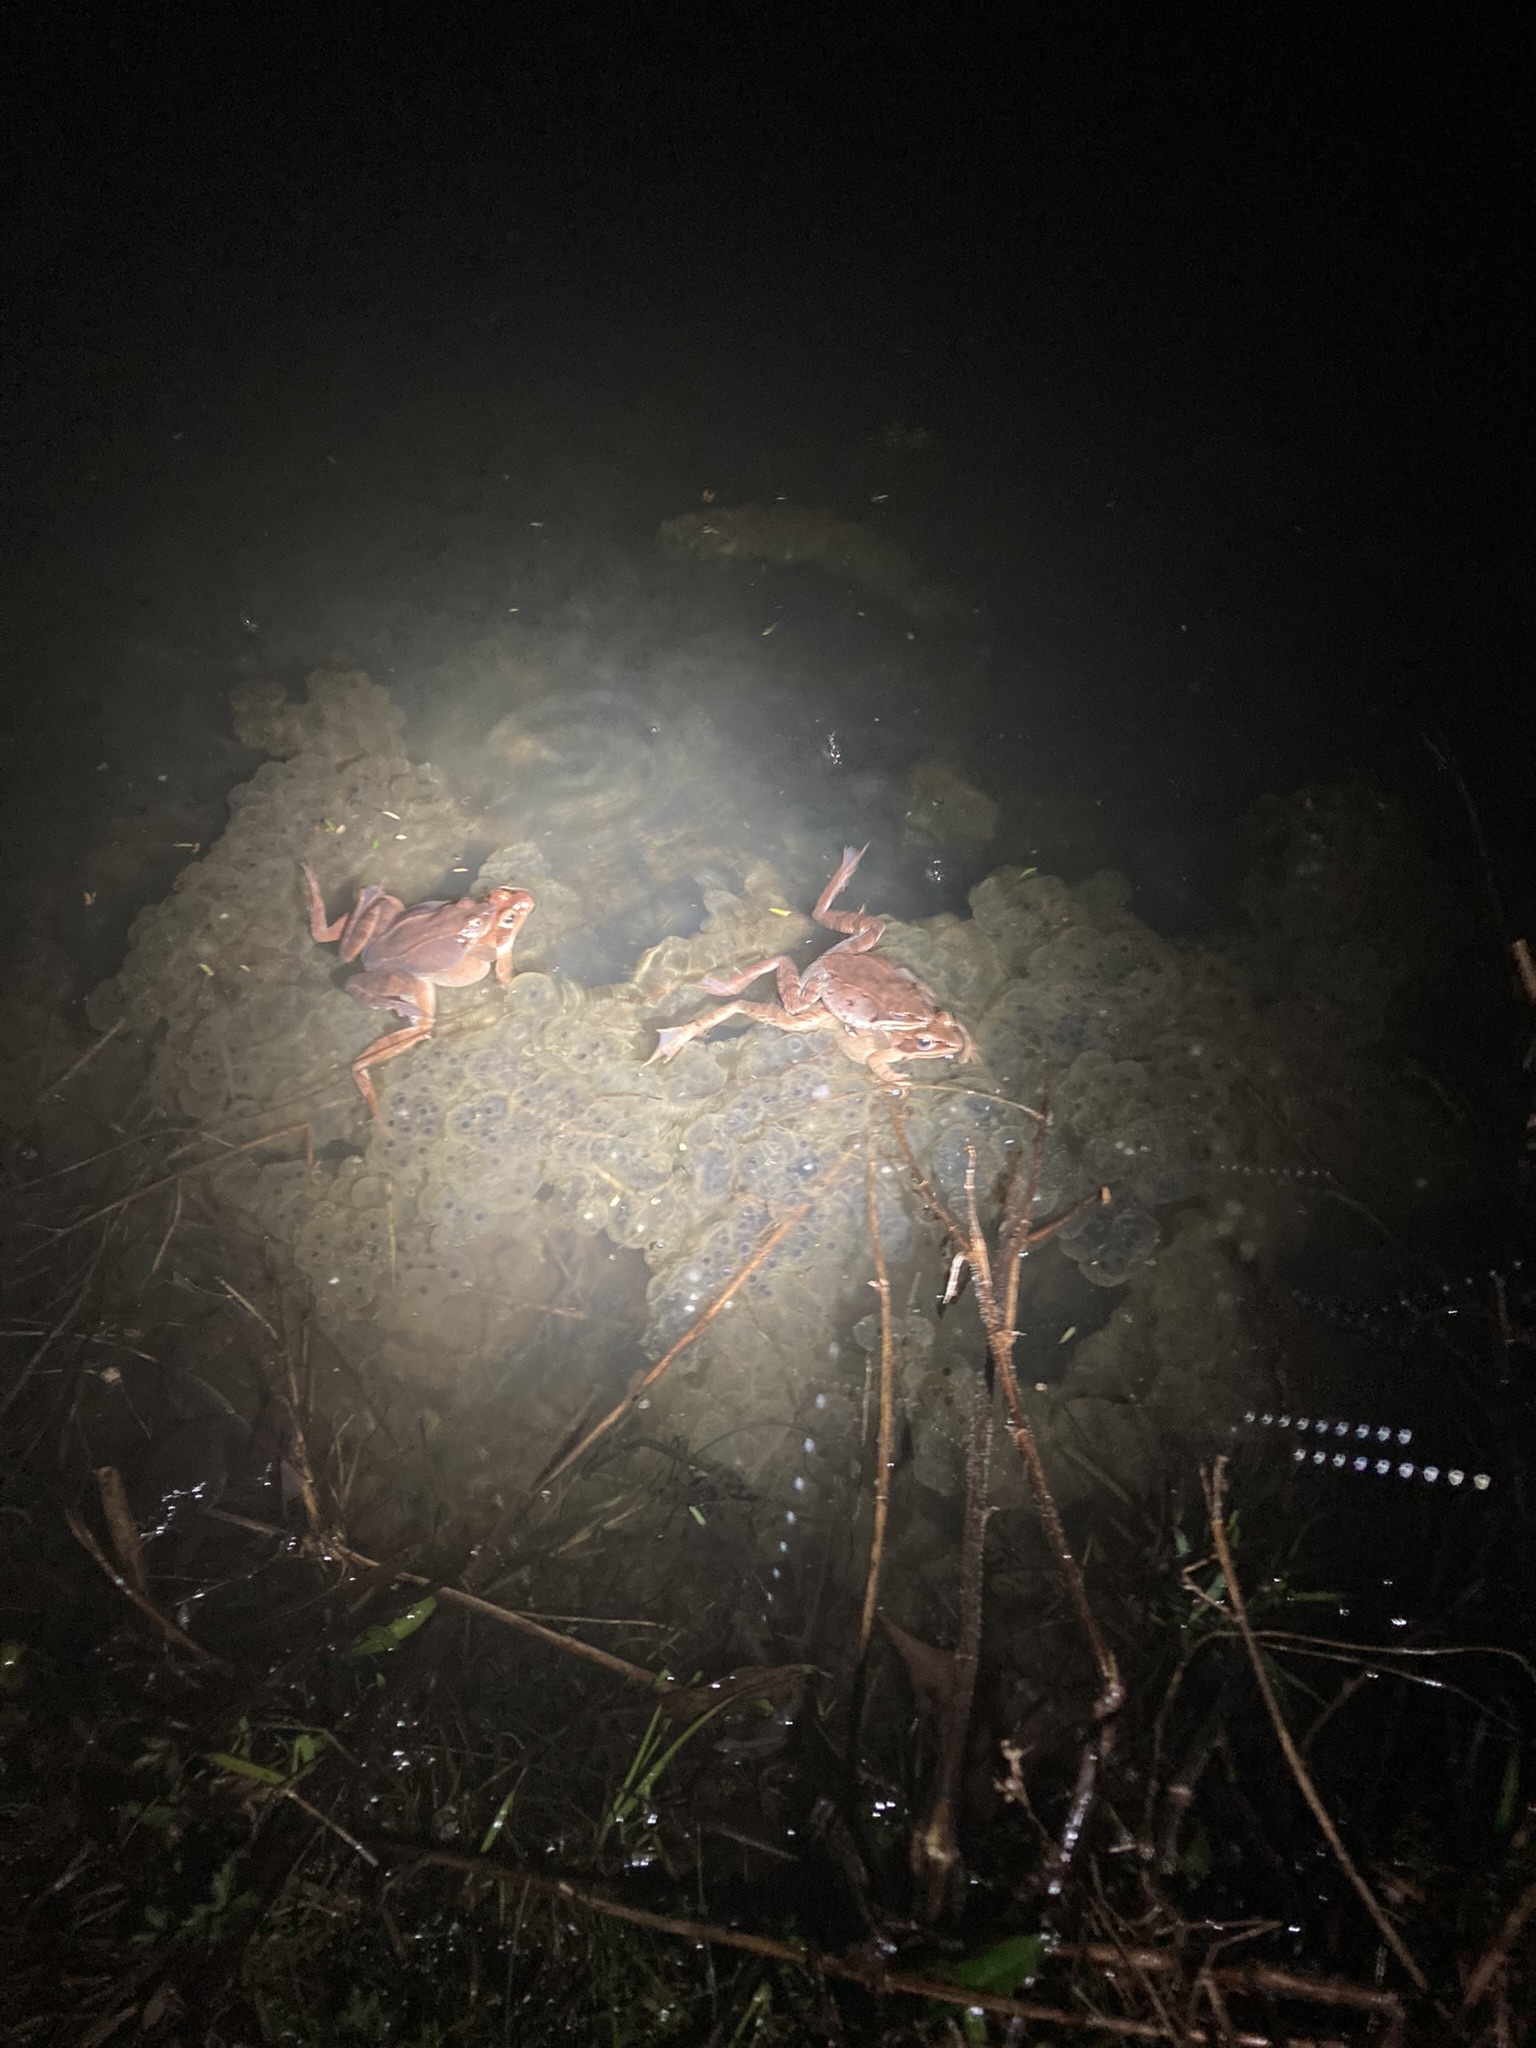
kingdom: Animalia
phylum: Chordata
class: Amphibia
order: Anura
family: Ranidae
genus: Lithobates
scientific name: Lithobates sylvaticus
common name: Wood frog
